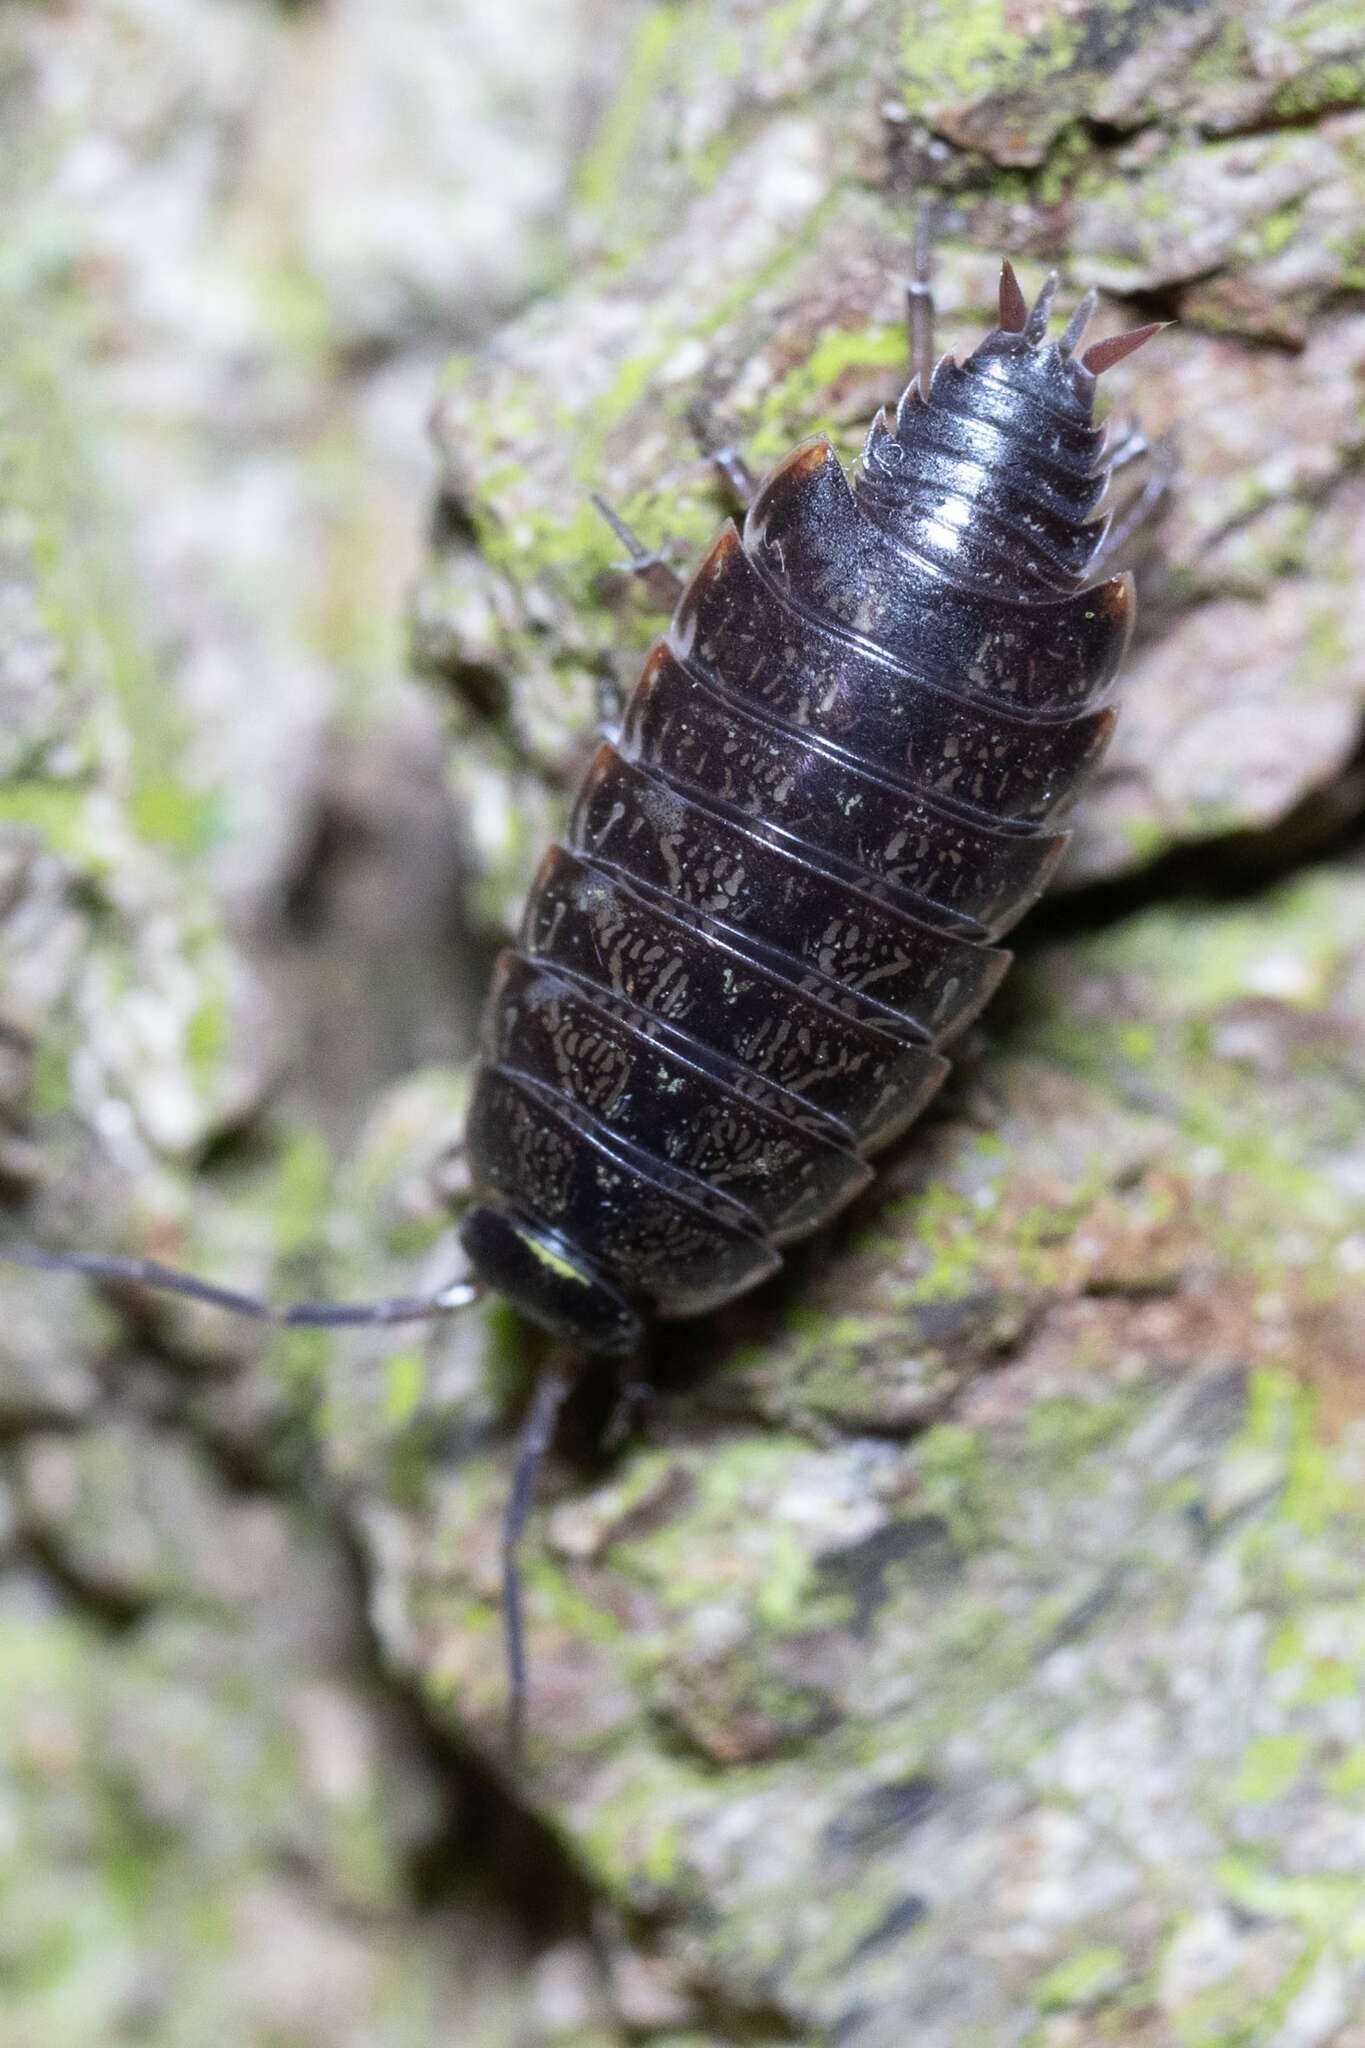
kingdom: Animalia
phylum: Arthropoda
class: Malacostraca
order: Isopoda
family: Philosciidae
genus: Philoscia
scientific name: Philoscia muscorum
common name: Common striped woodlouse
